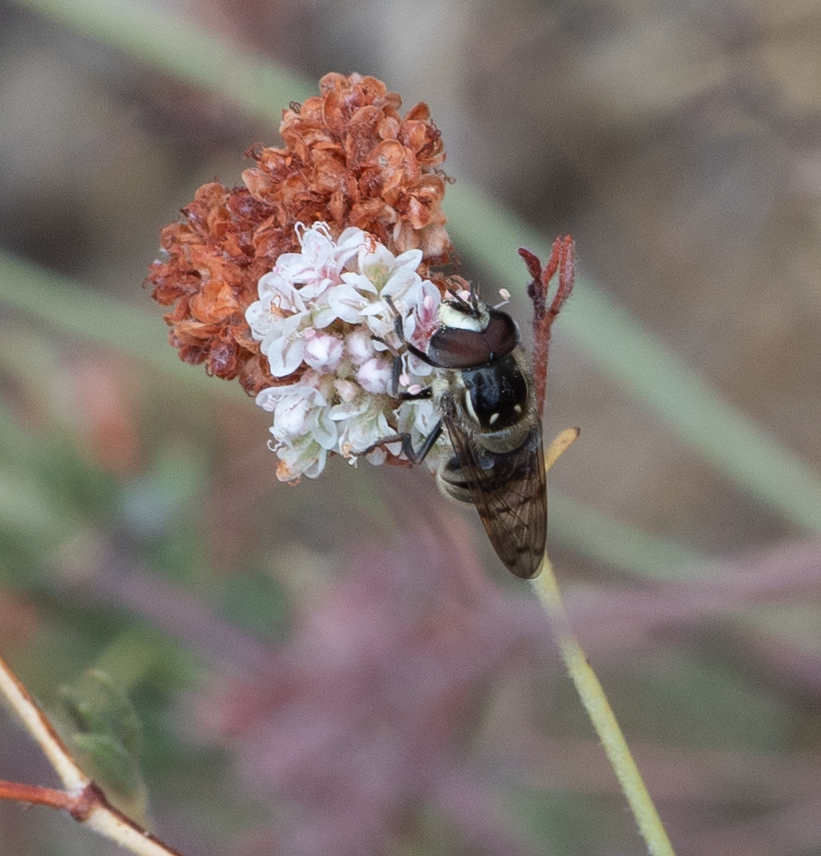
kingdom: Animalia
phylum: Arthropoda
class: Insecta
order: Diptera
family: Syrphidae
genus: Copestylum
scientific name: Copestylum fraudulentum
